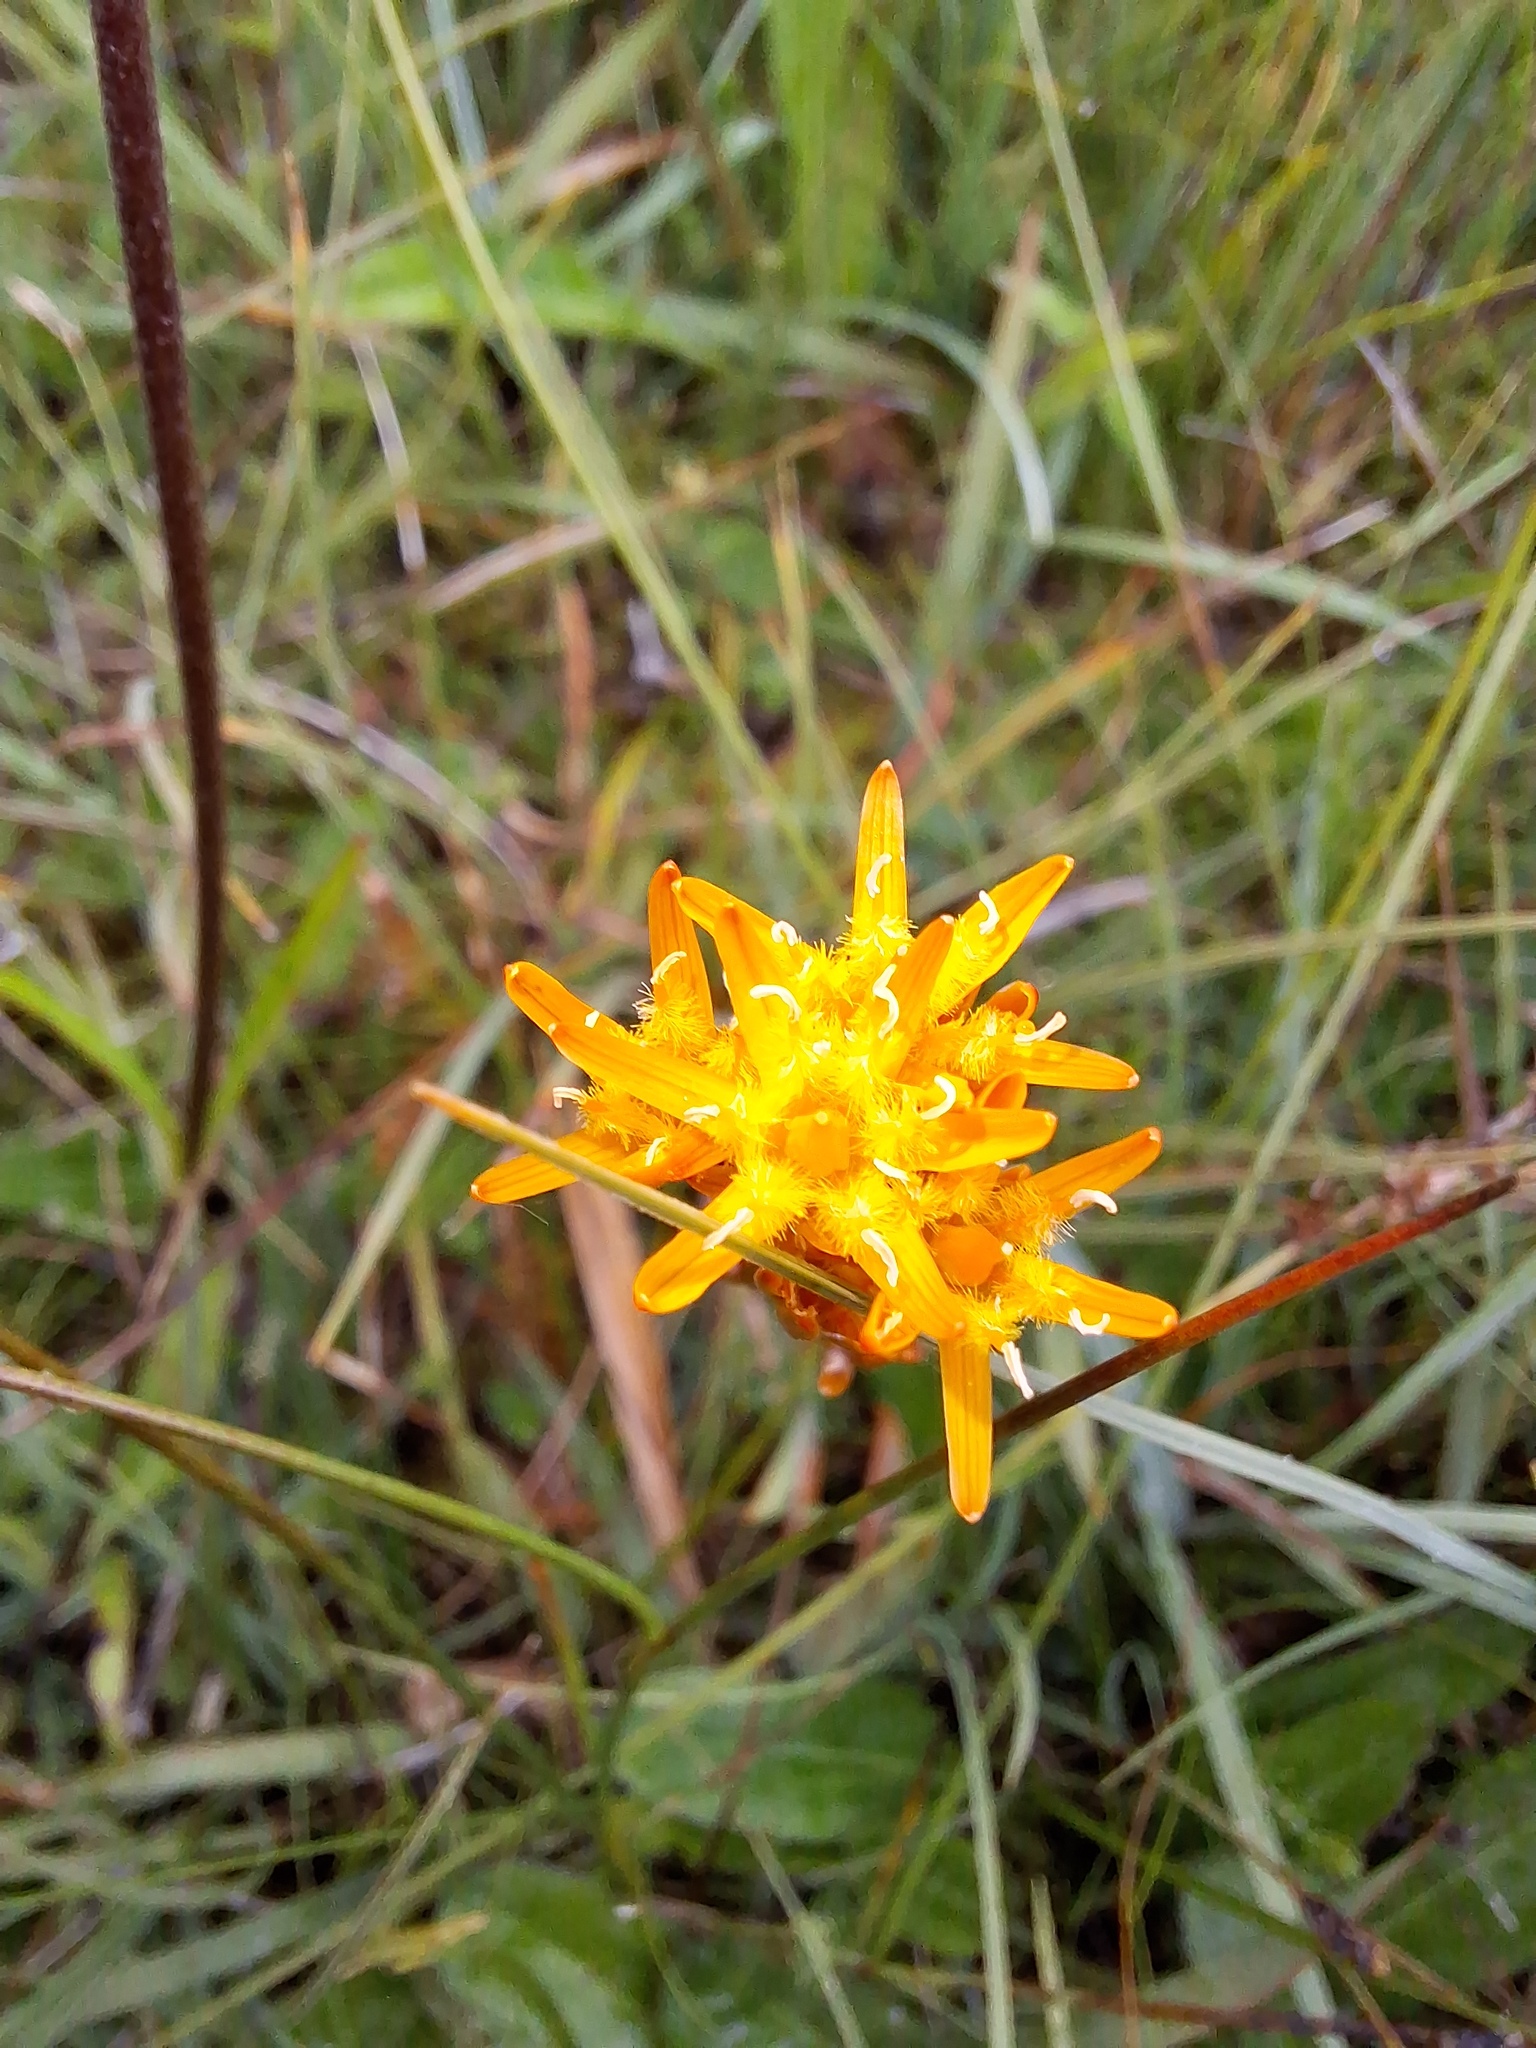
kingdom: Plantae
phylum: Tracheophyta
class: Liliopsida
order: Dioscoreales
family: Nartheciaceae
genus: Narthecium
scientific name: Narthecium ossifragum
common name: Bog asphodel
